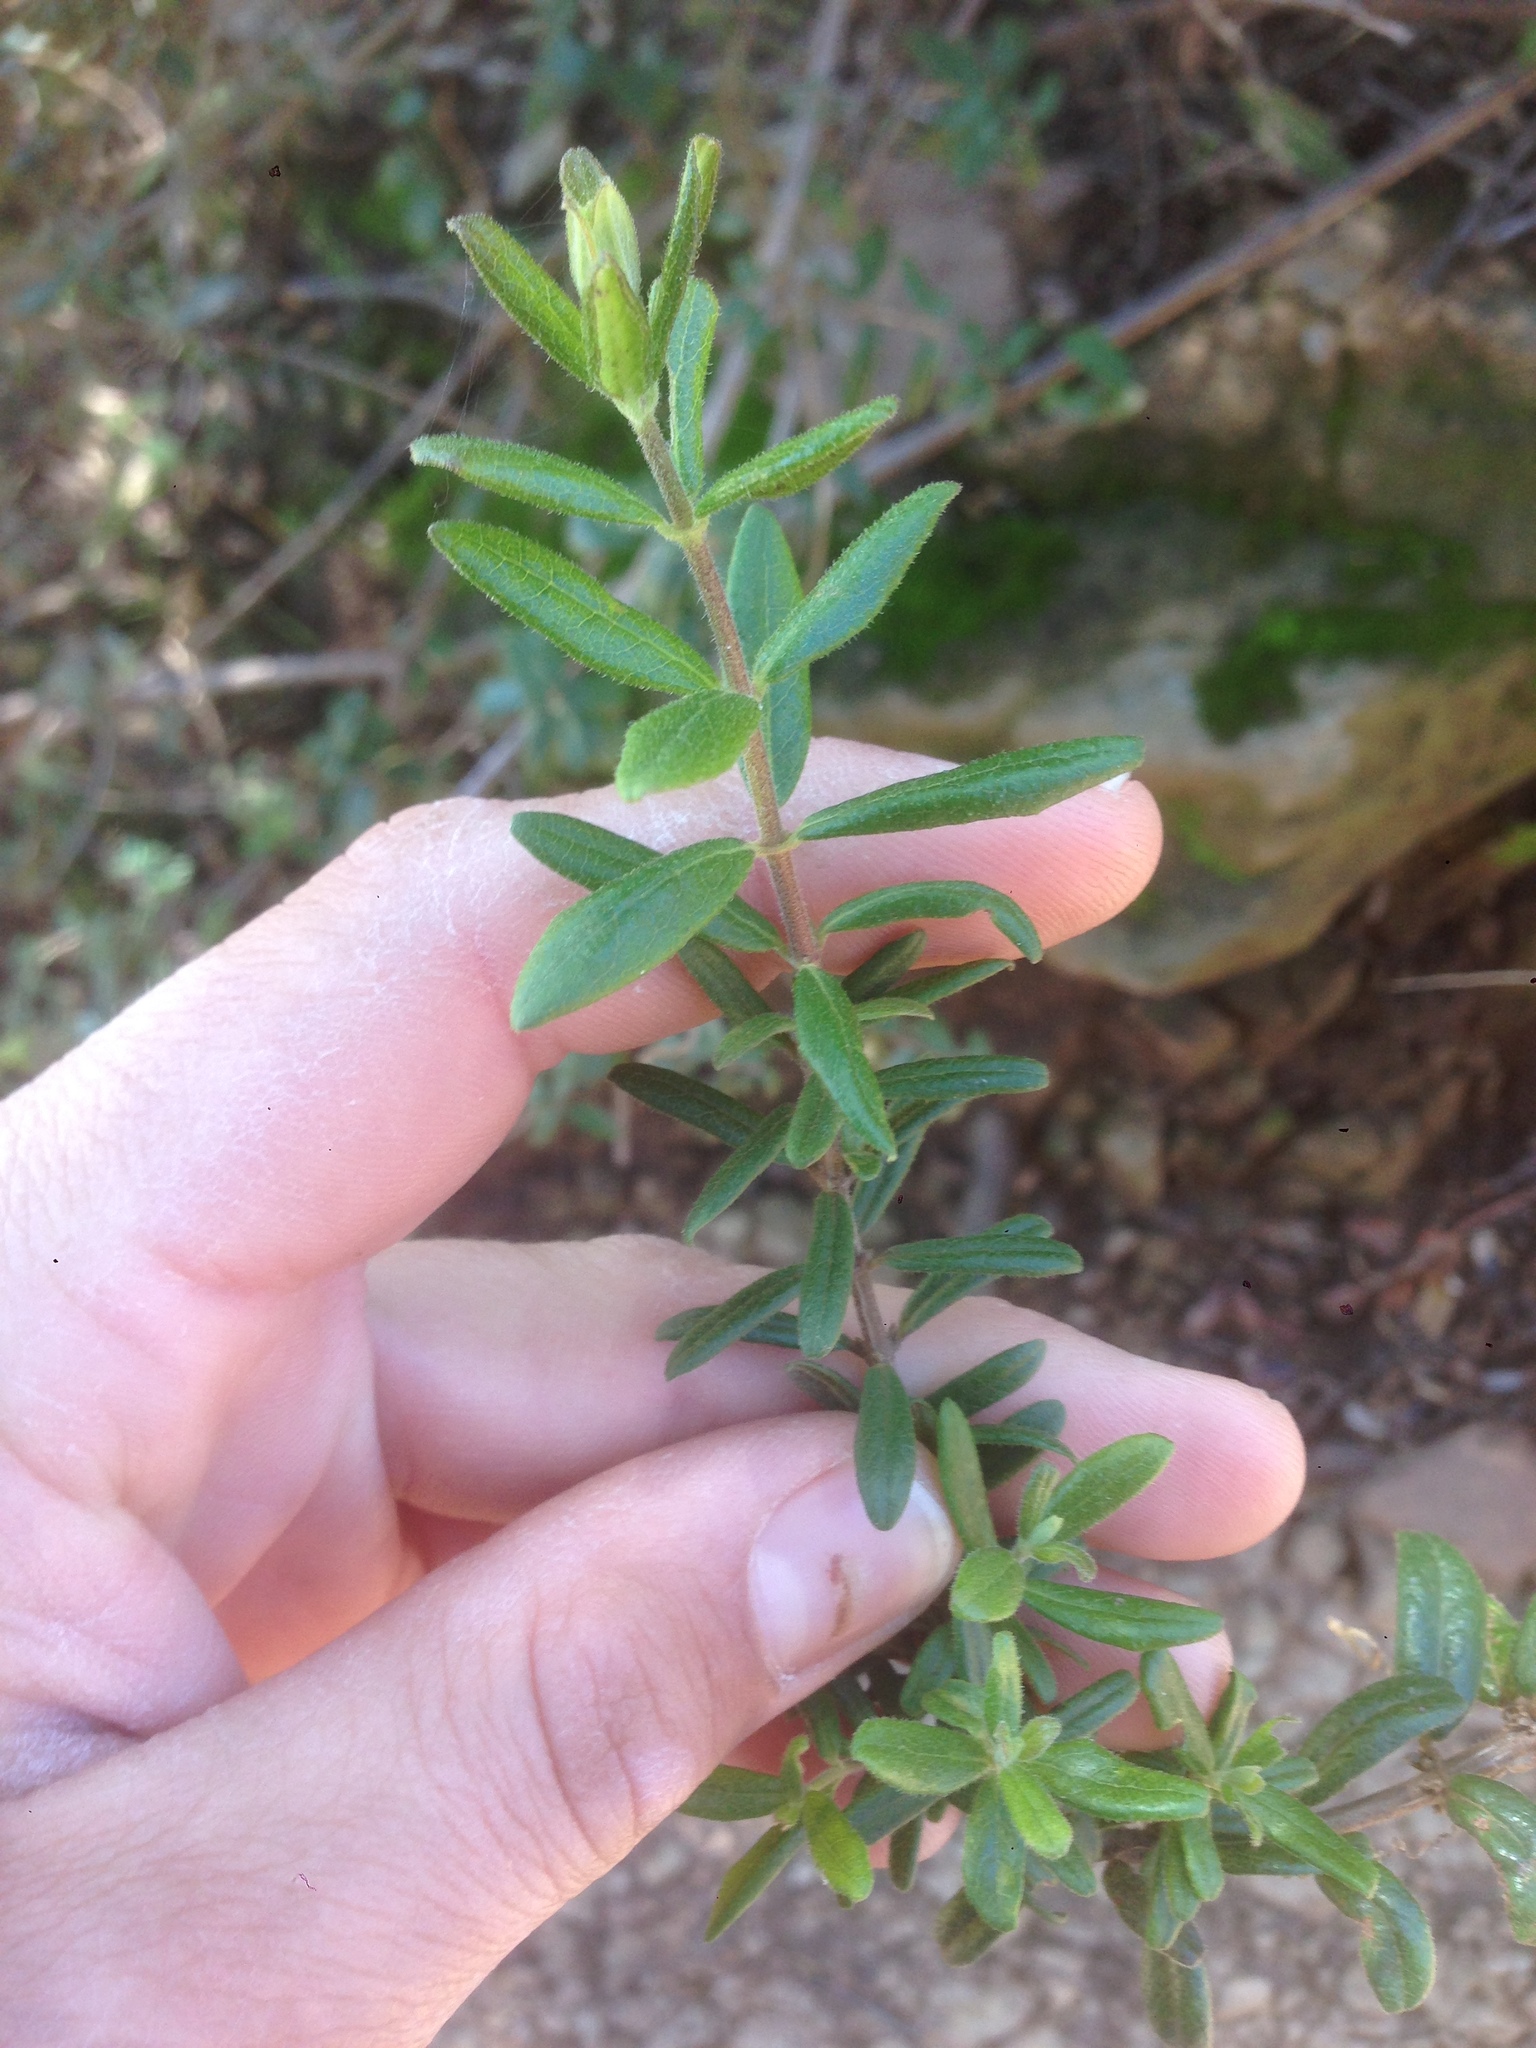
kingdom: Plantae
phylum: Tracheophyta
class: Magnoliopsida
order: Dipsacales
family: Caprifoliaceae
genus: Lonicera
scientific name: Lonicera subspicata
